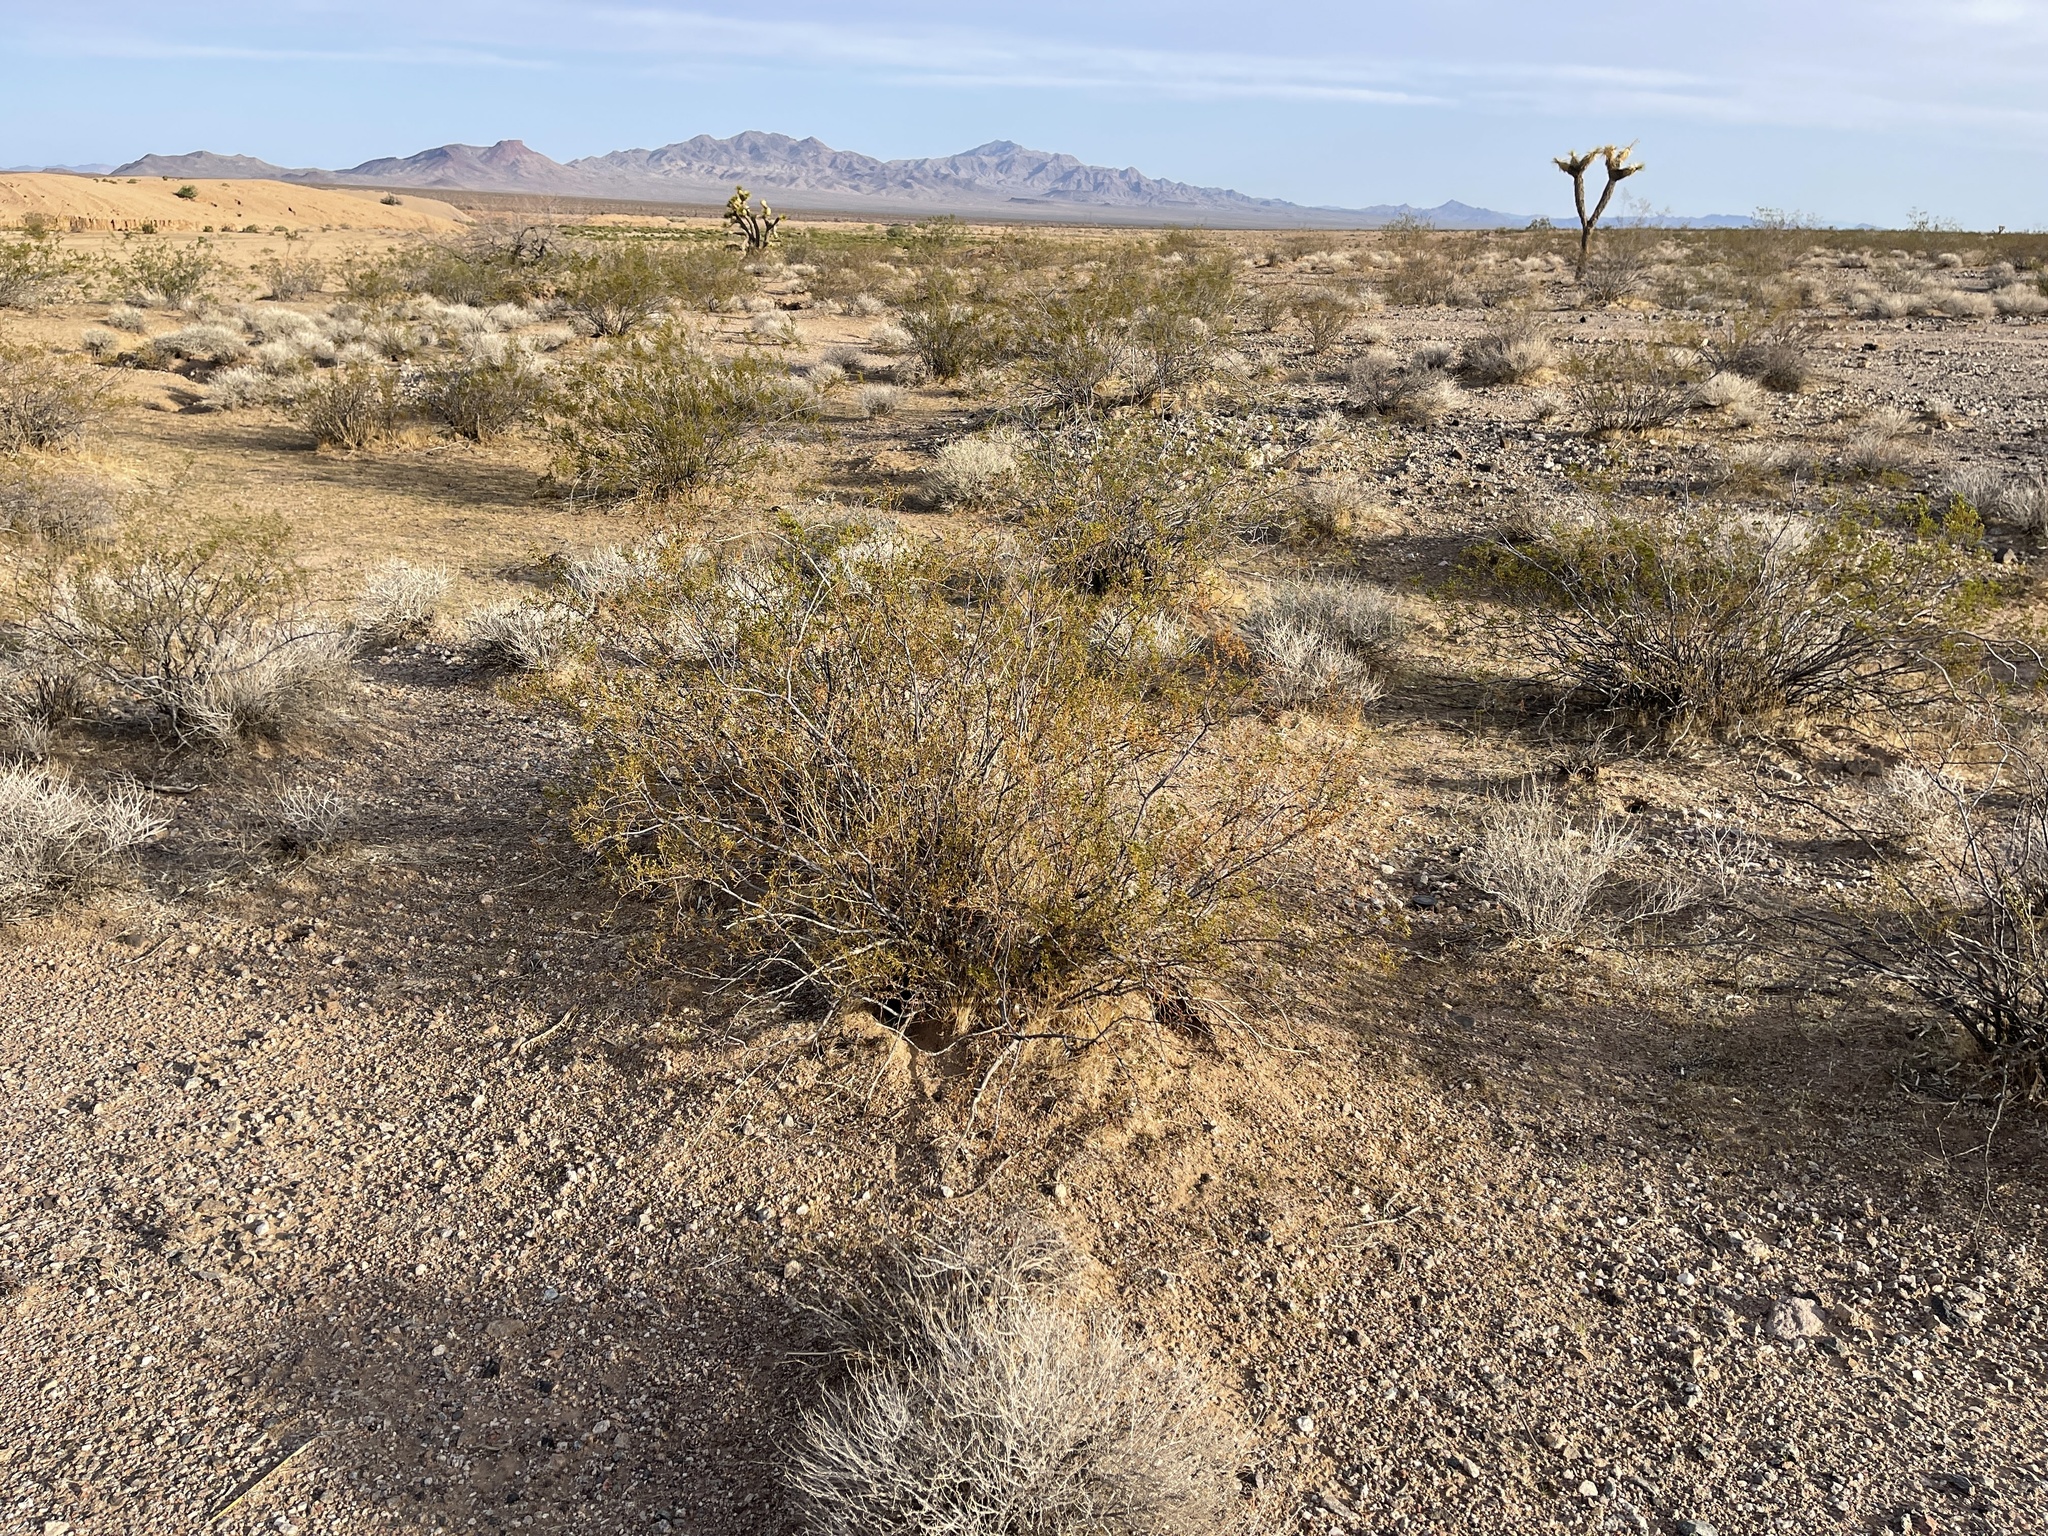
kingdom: Plantae
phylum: Tracheophyta
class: Magnoliopsida
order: Zygophyllales
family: Zygophyllaceae
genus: Larrea
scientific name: Larrea tridentata
